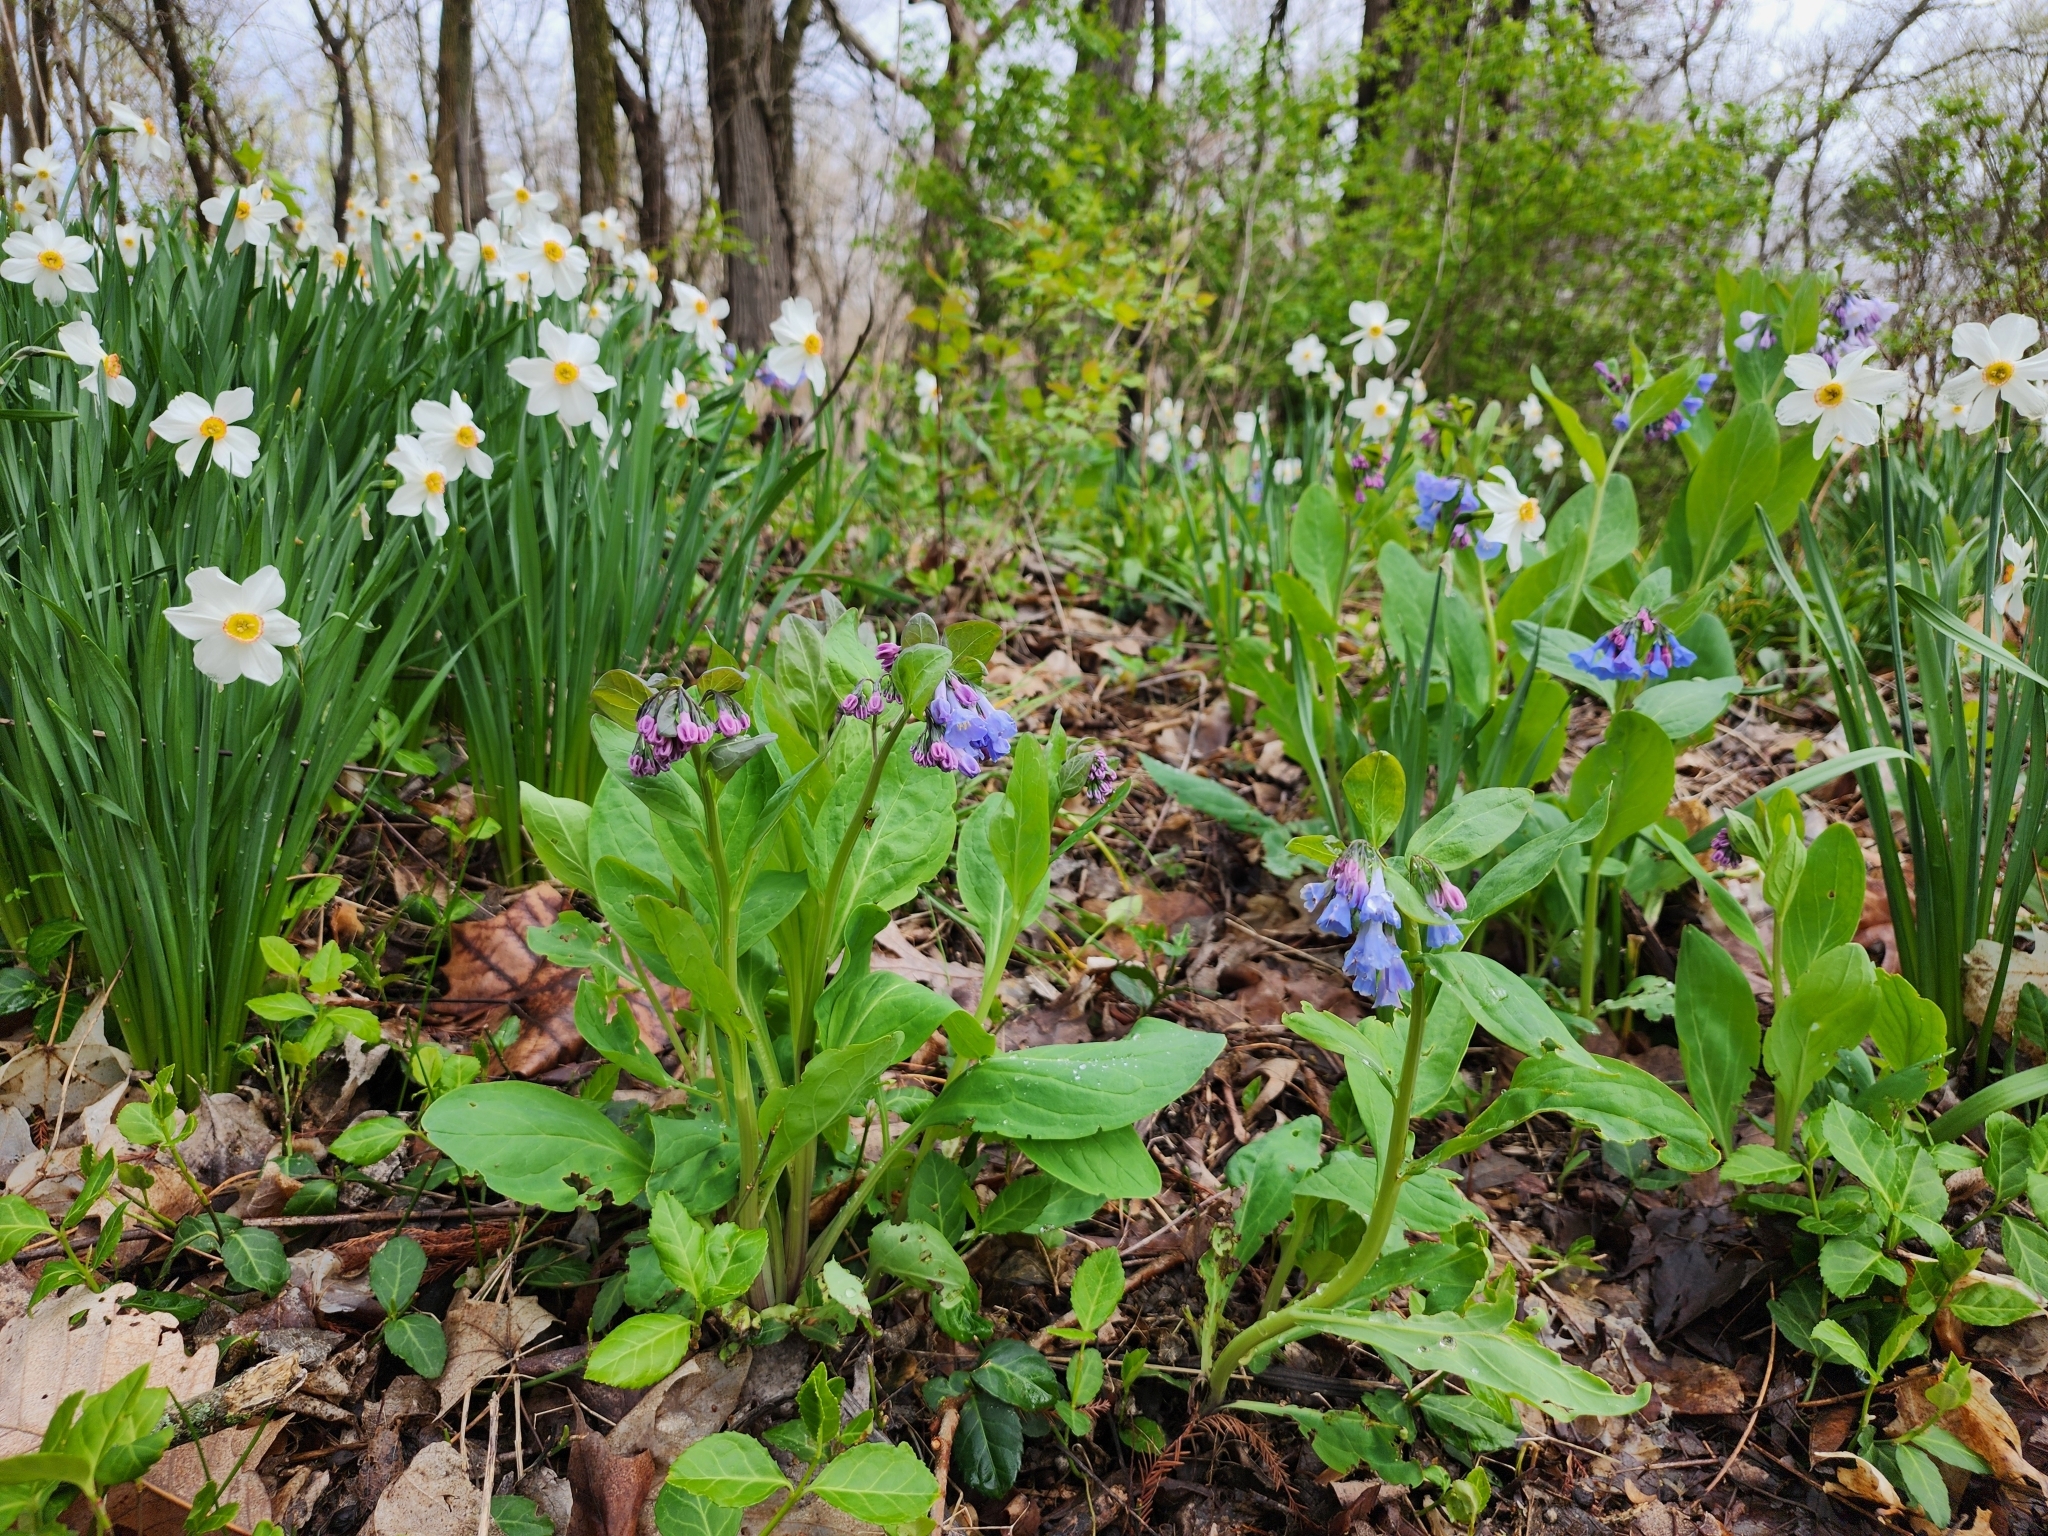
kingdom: Plantae
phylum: Tracheophyta
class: Magnoliopsida
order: Boraginales
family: Boraginaceae
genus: Mertensia
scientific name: Mertensia virginica
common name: Virginia bluebells
